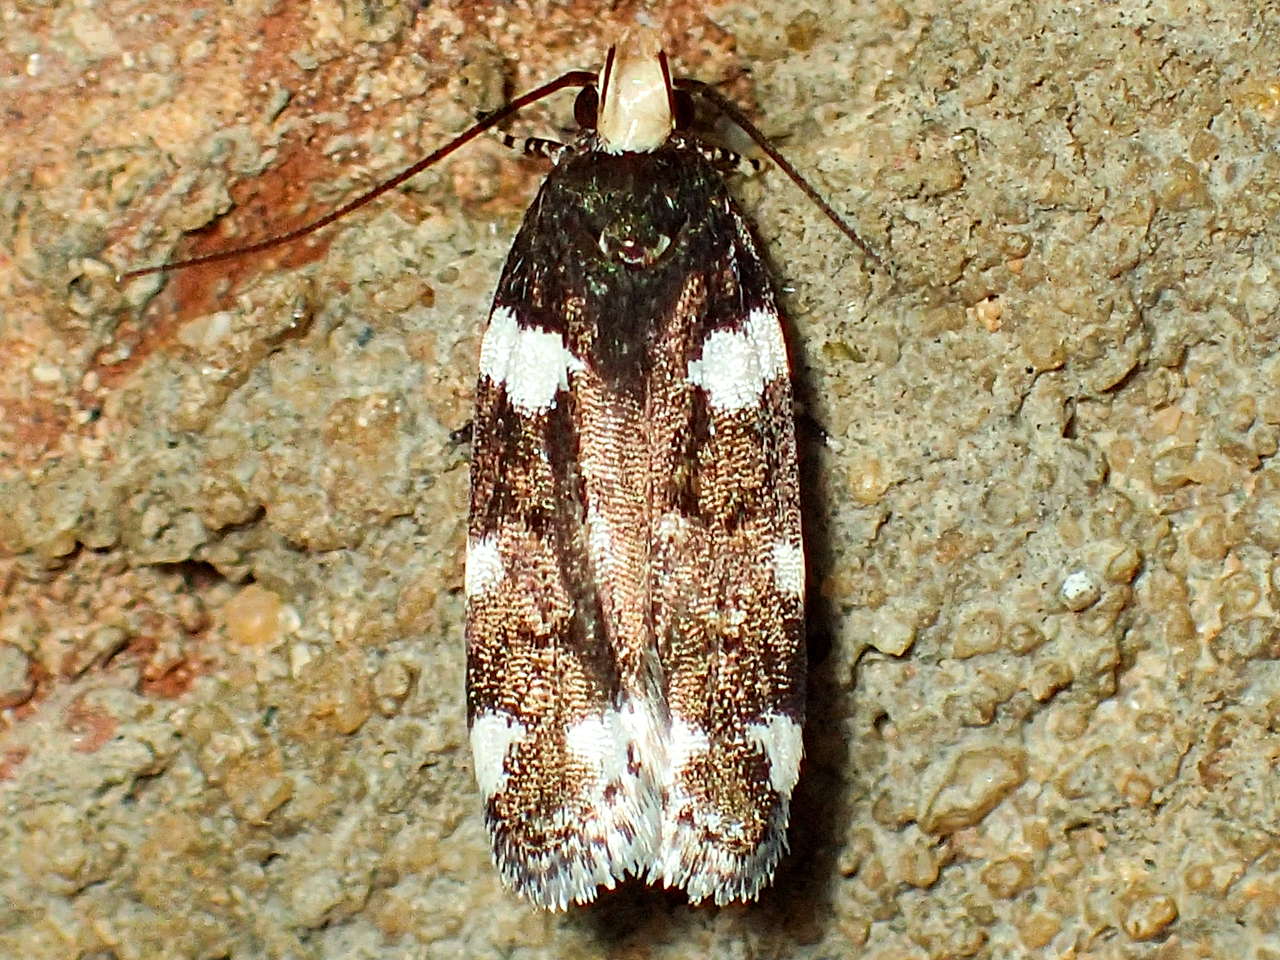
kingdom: Animalia
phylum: Arthropoda
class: Insecta
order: Lepidoptera
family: Gelechiidae
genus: Fascista
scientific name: Fascista cercerisella
